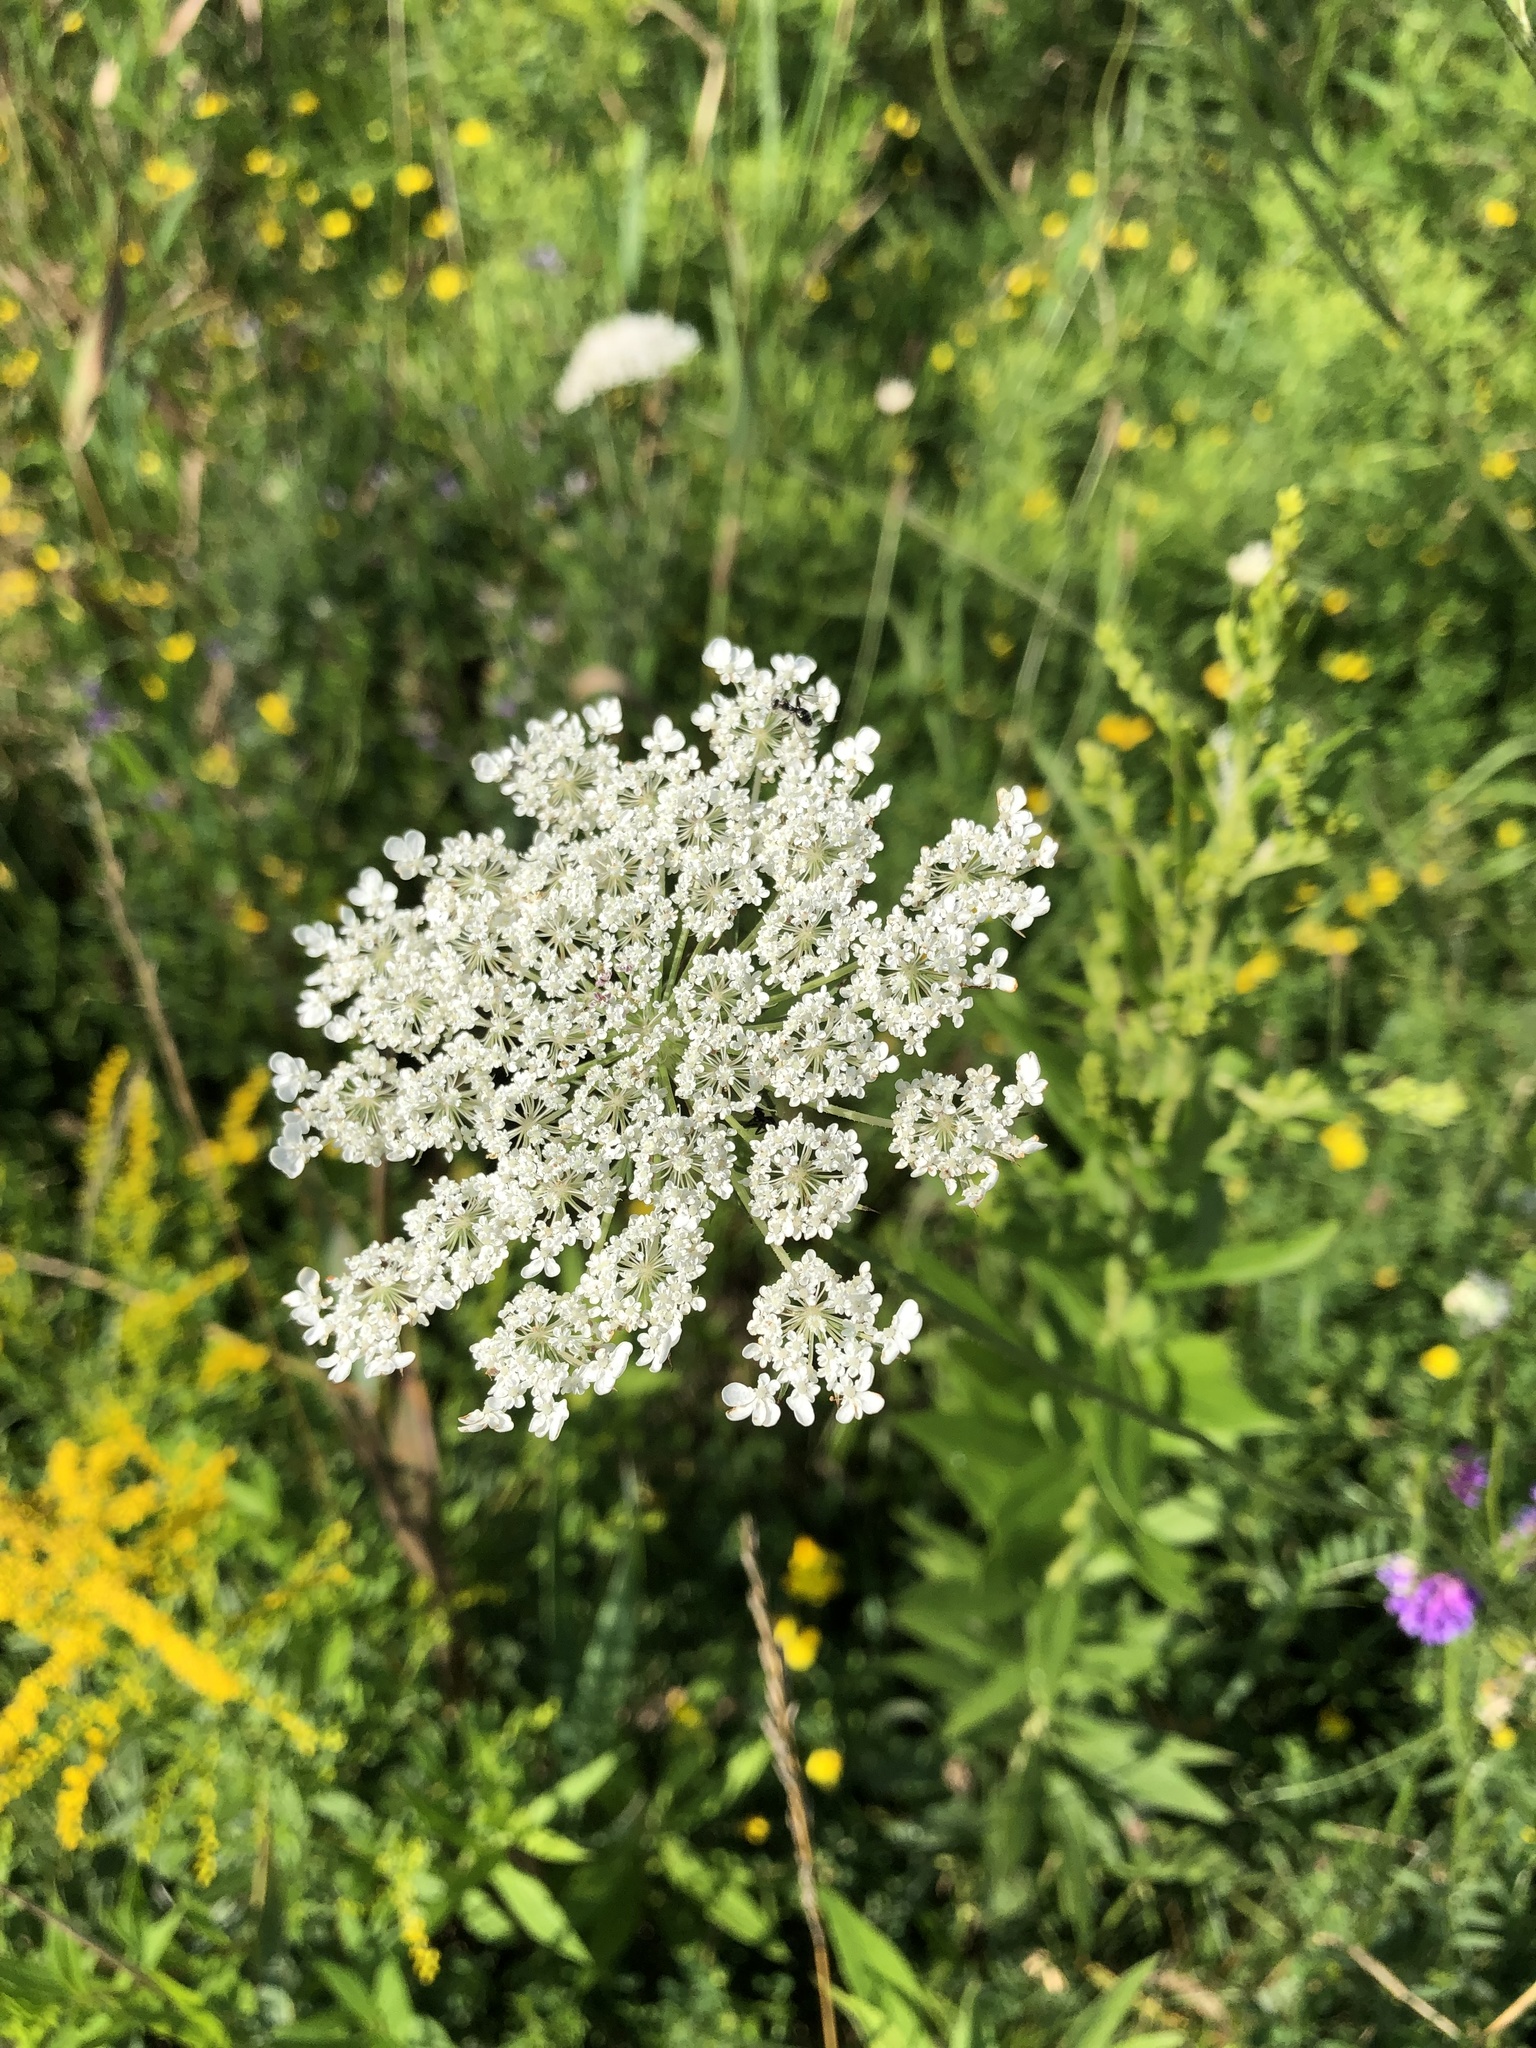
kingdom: Plantae
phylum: Tracheophyta
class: Magnoliopsida
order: Apiales
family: Apiaceae
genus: Daucus
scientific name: Daucus carota
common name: Wild carrot
